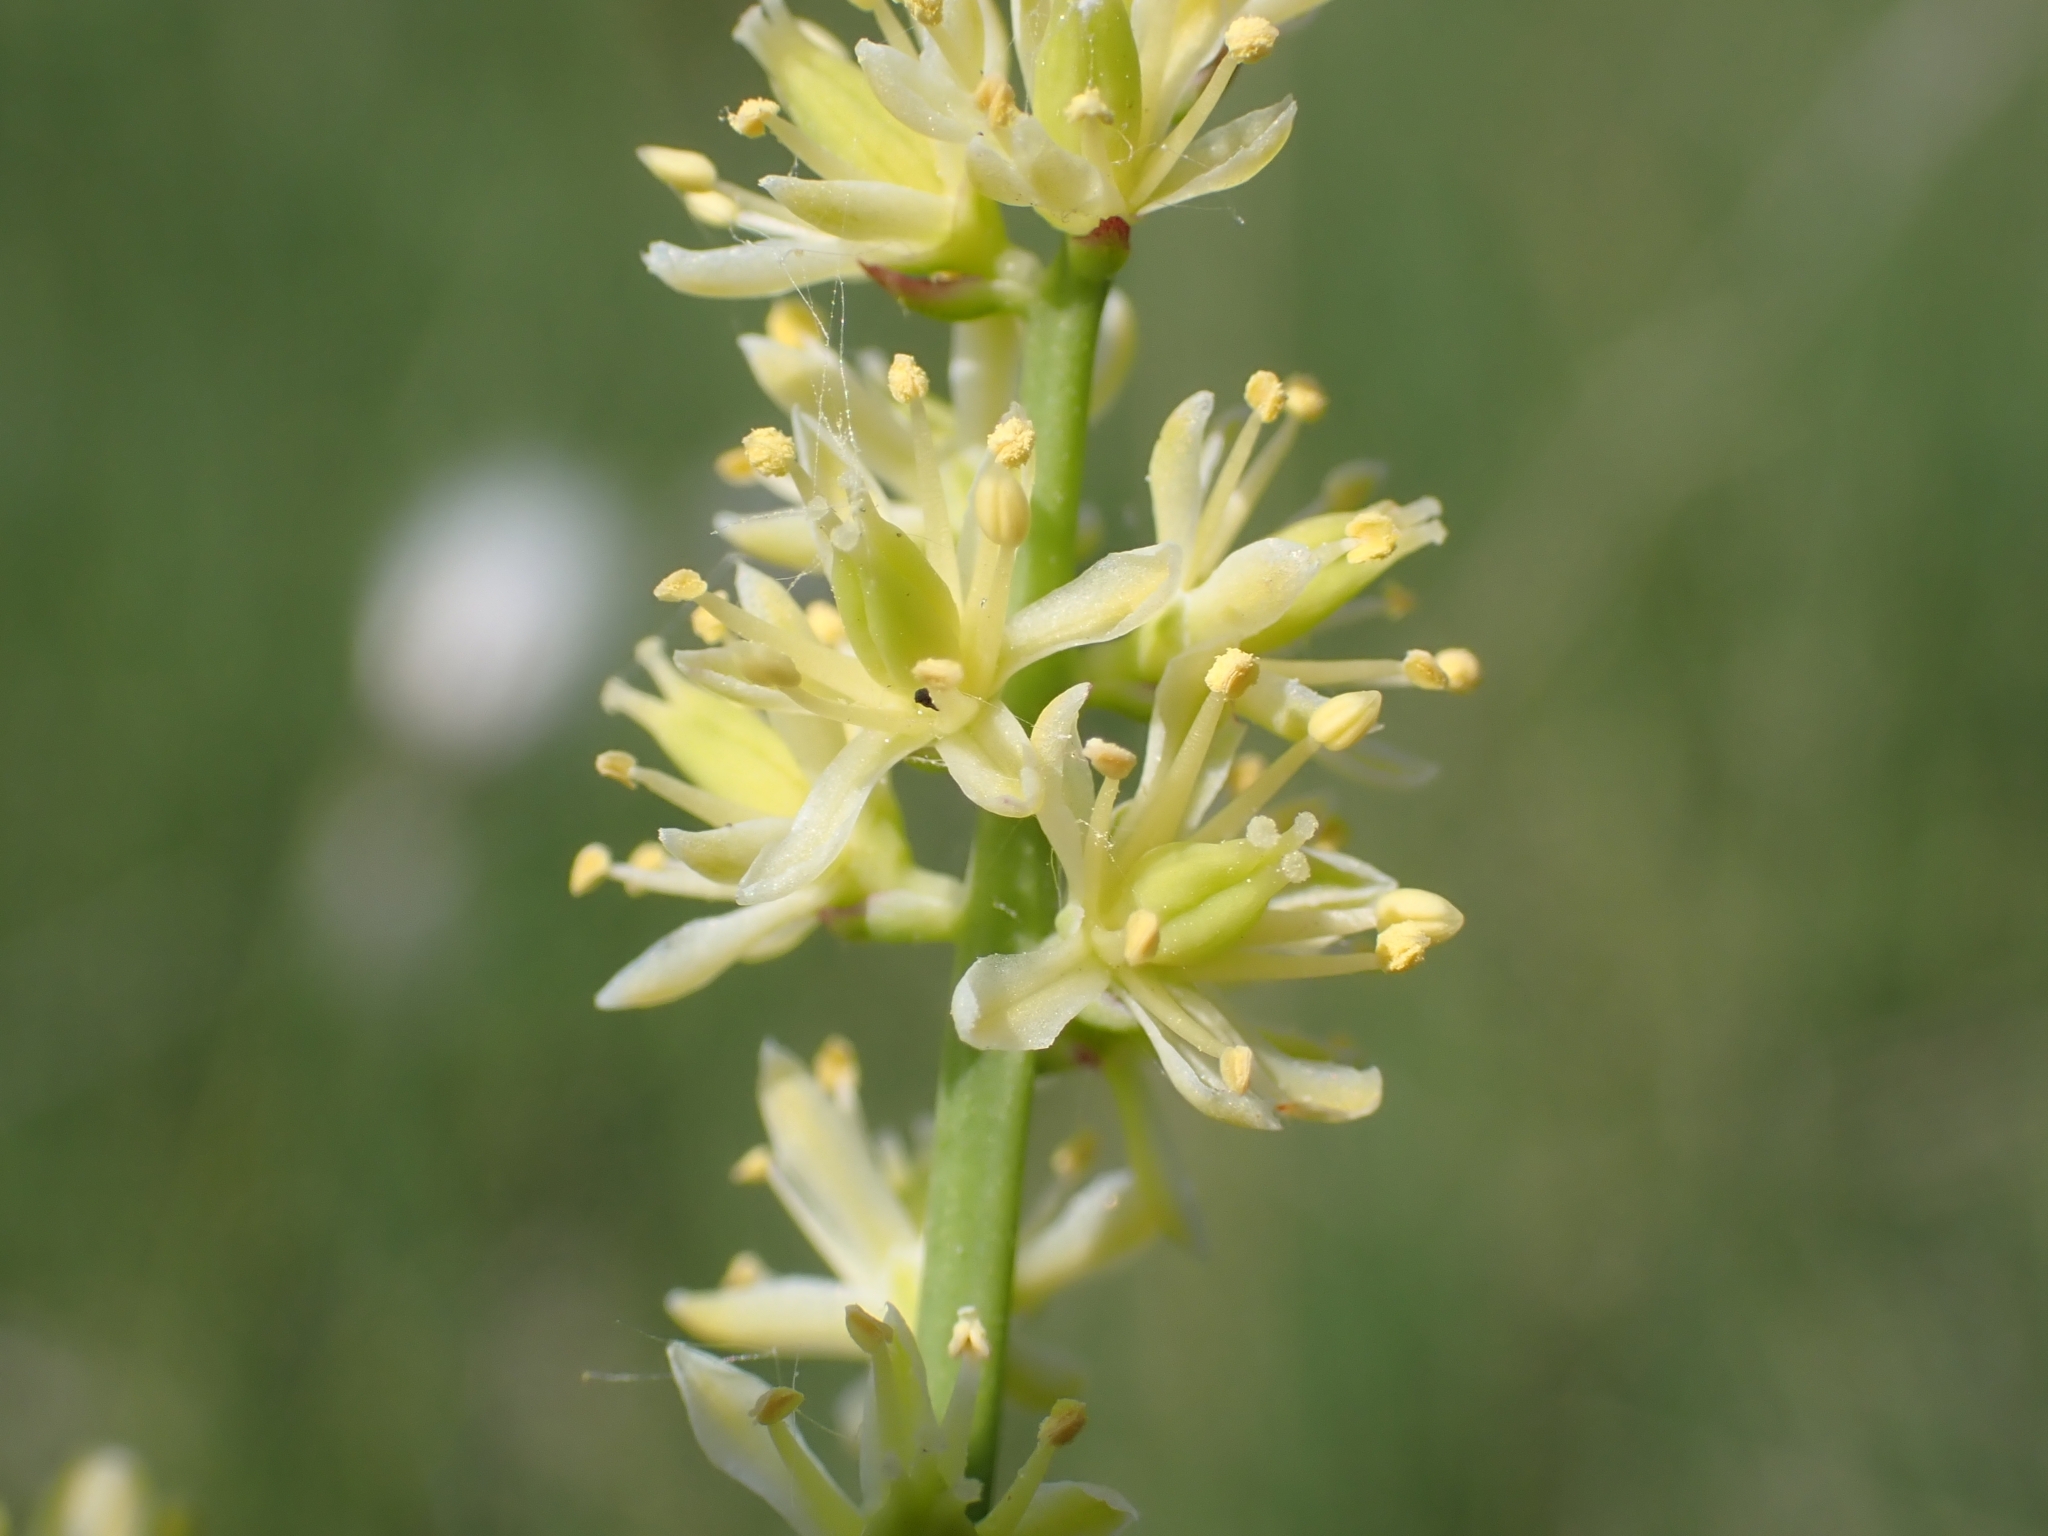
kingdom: Plantae
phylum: Tracheophyta
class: Liliopsida
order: Alismatales
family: Tofieldiaceae
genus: Tofieldia
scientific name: Tofieldia calyculata
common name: German-asphodel
